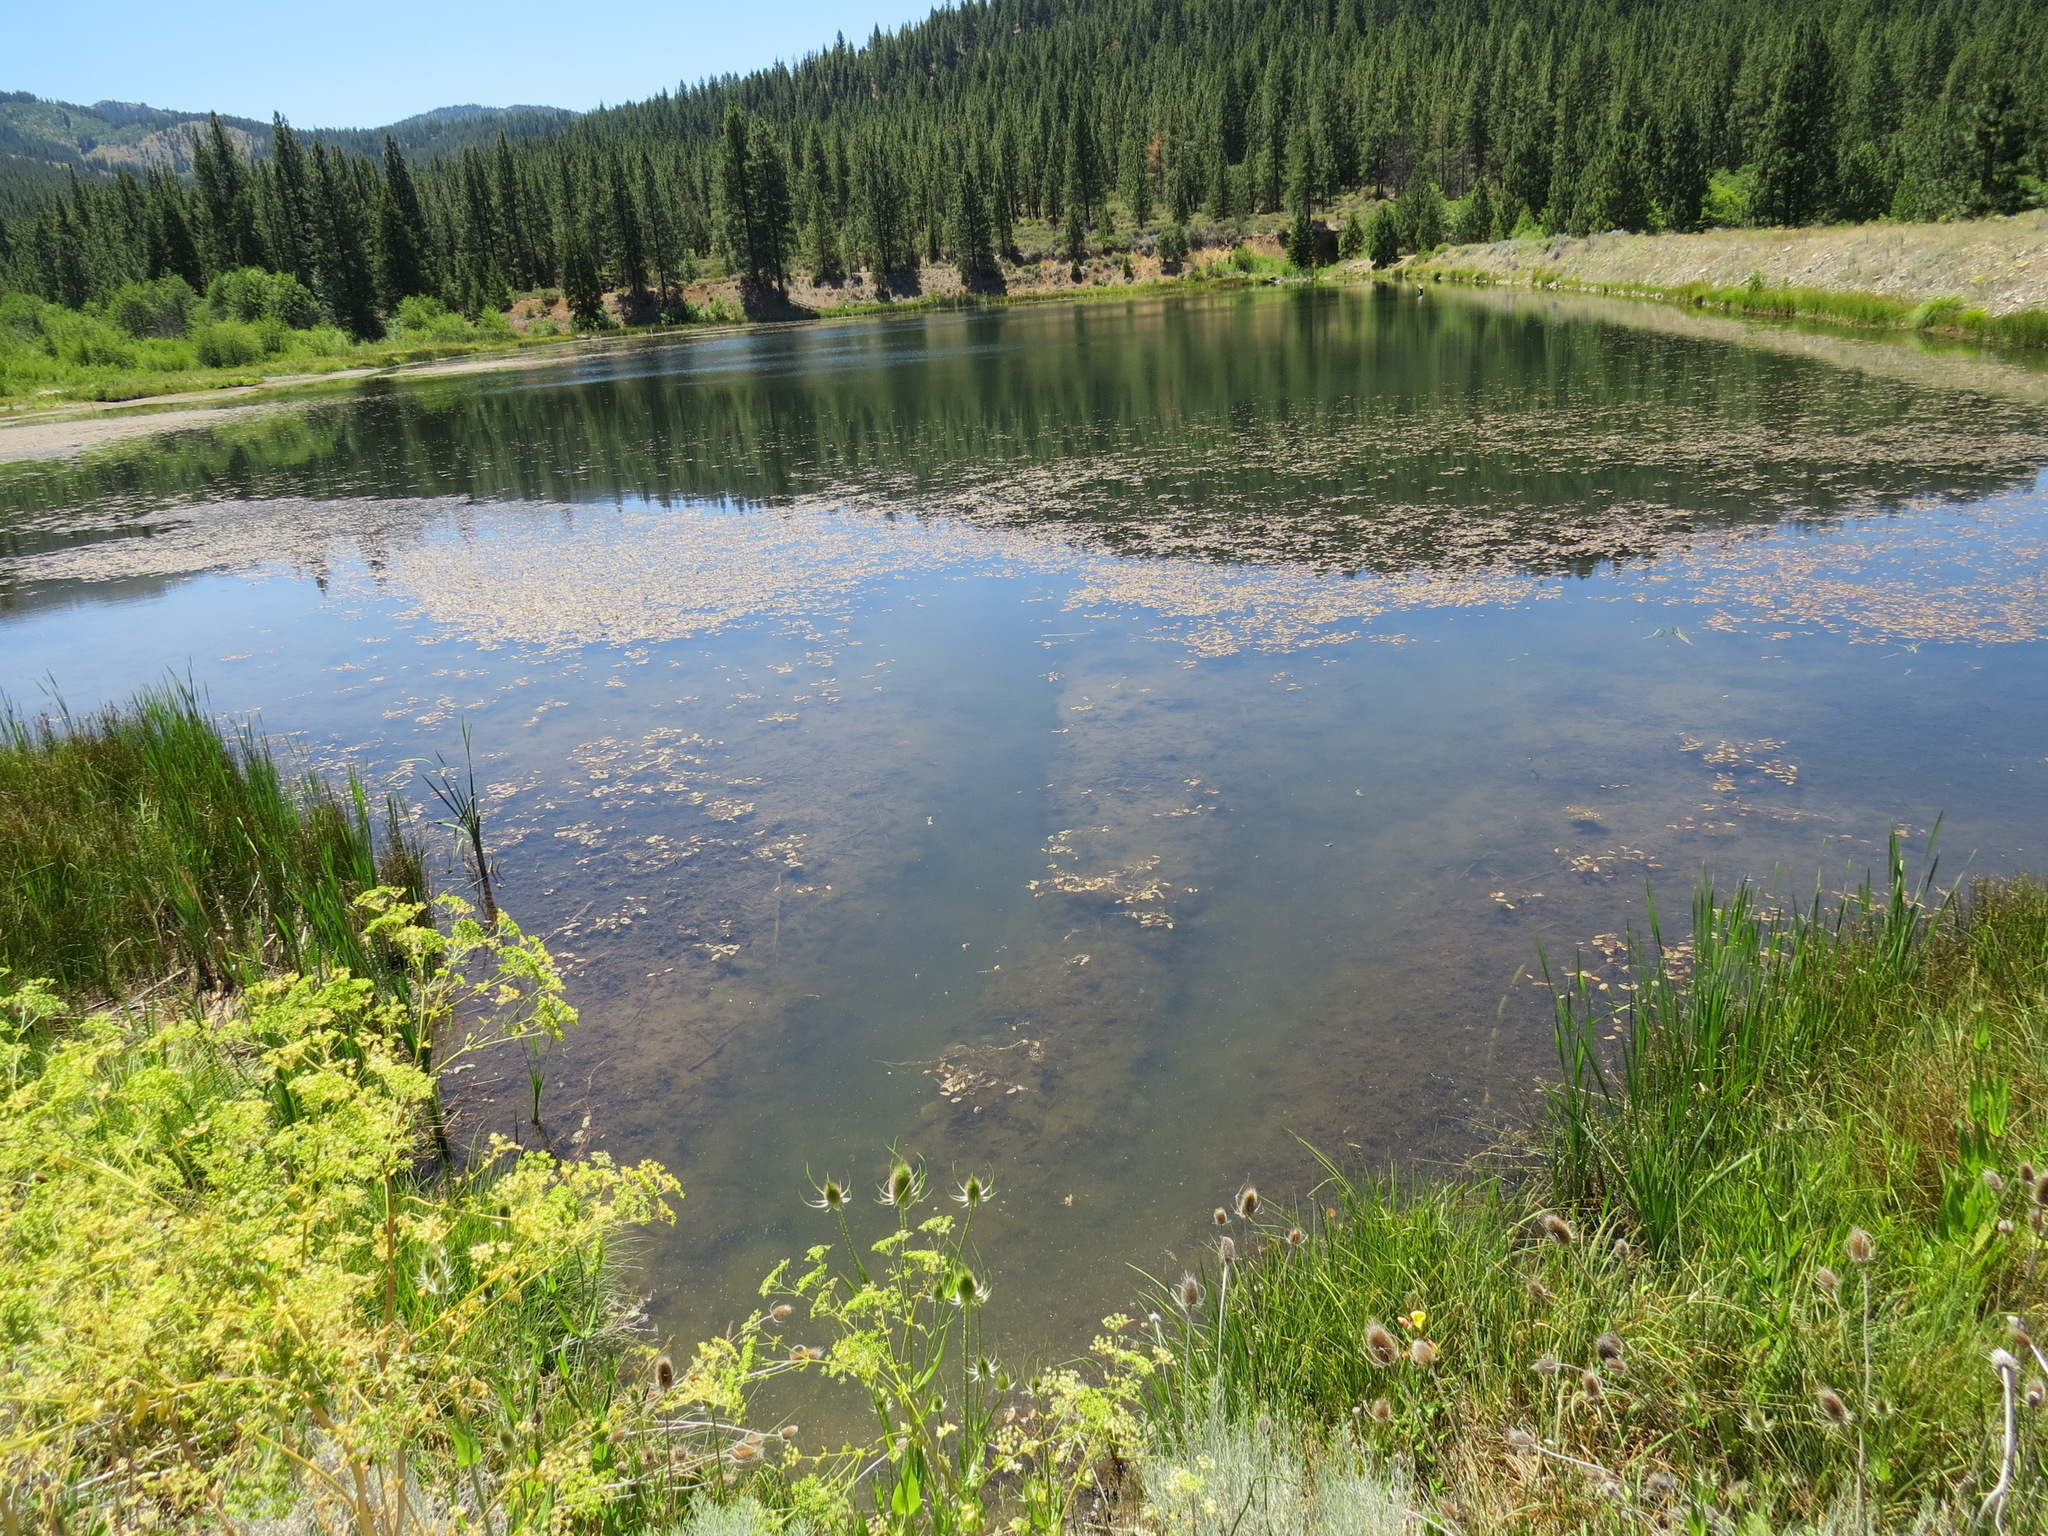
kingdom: Animalia
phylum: Chordata
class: Mammalia
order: Rodentia
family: Castoridae
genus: Castor
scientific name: Castor canadensis
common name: American beaver
